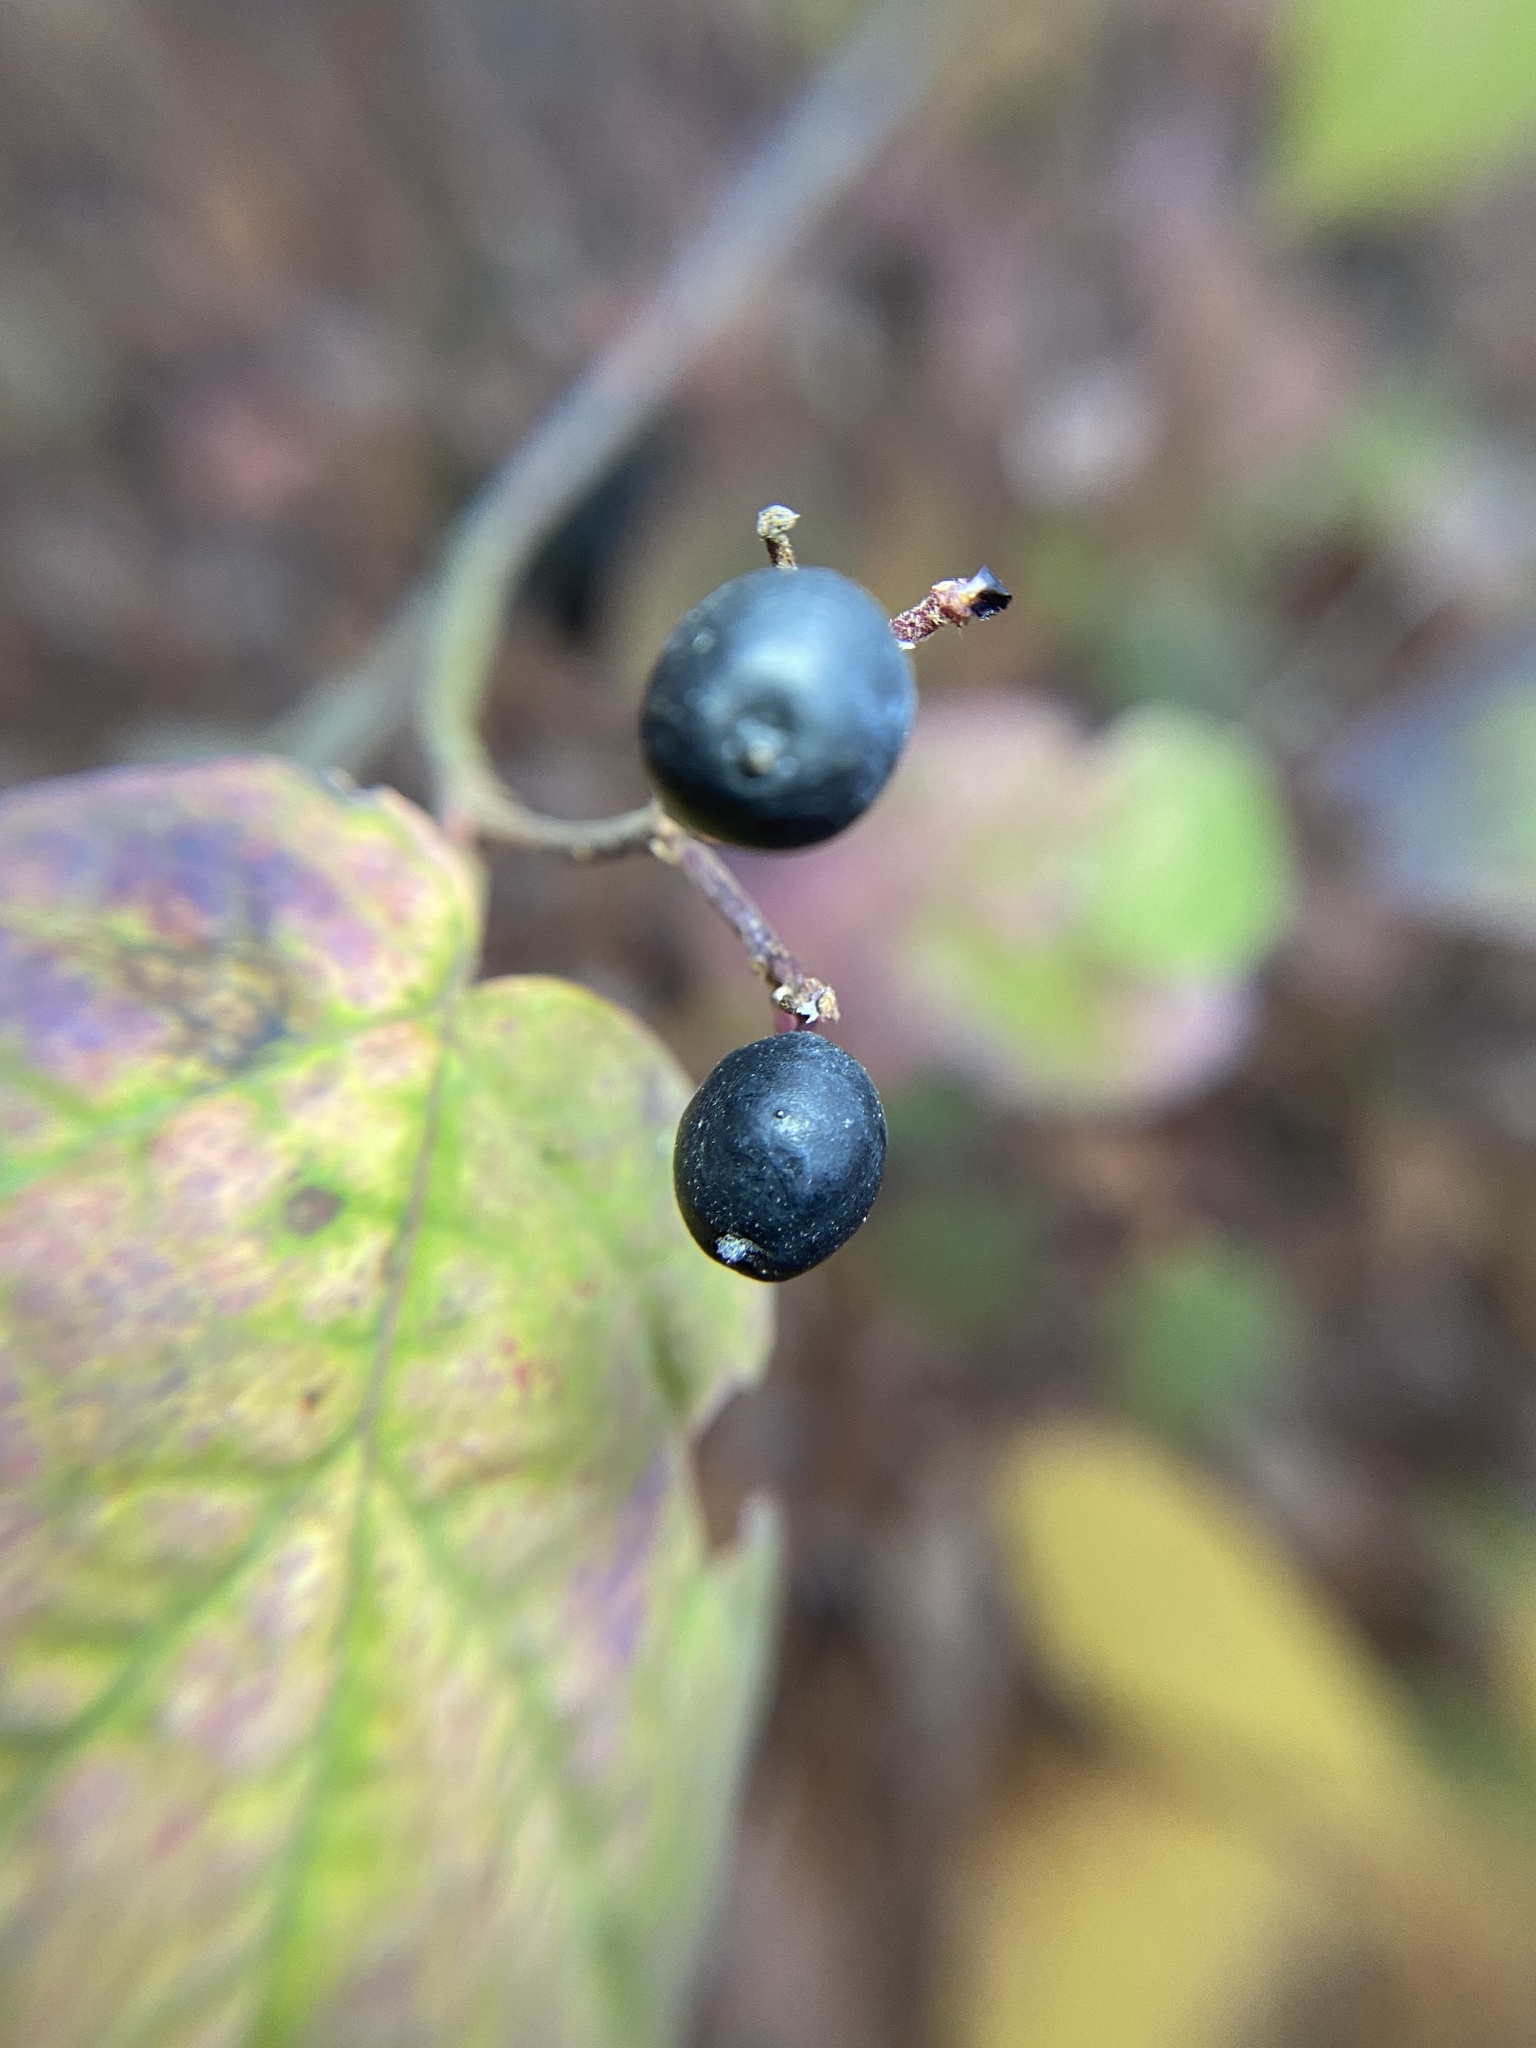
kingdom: Plantae
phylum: Tracheophyta
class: Magnoliopsida
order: Dipsacales
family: Viburnaceae
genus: Viburnum
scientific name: Viburnum acerifolium
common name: Dockmackie
